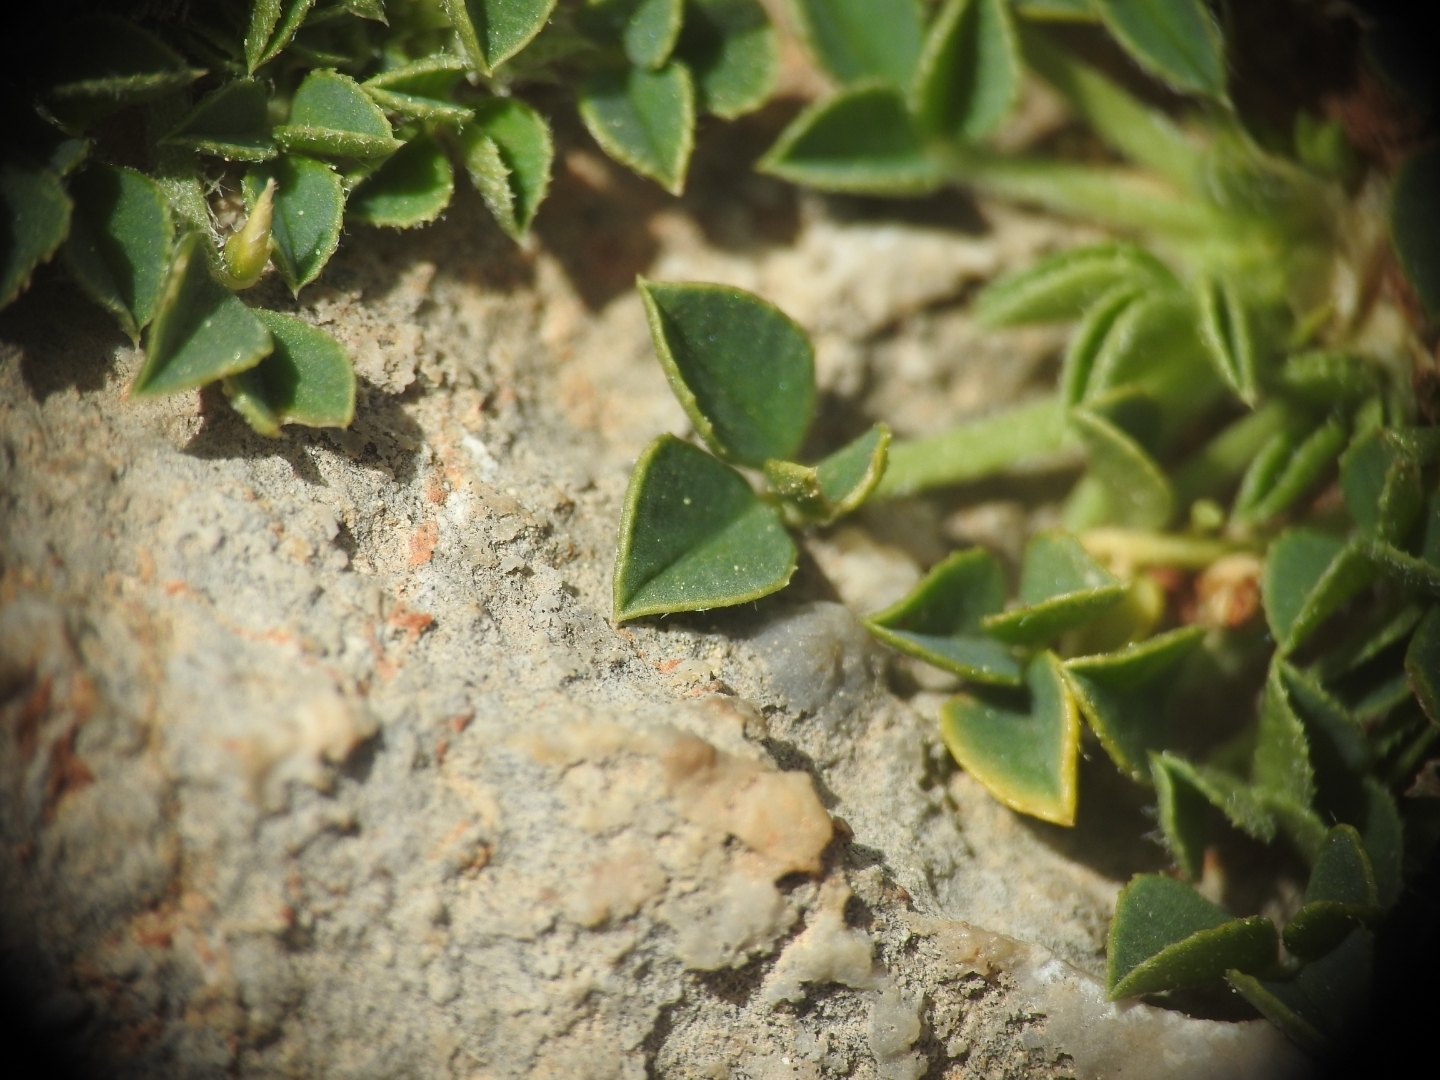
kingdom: Plantae
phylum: Tracheophyta
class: Magnoliopsida
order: Fabales
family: Fabaceae
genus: Trifolium
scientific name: Trifolium uniflorum
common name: One-flower clover
